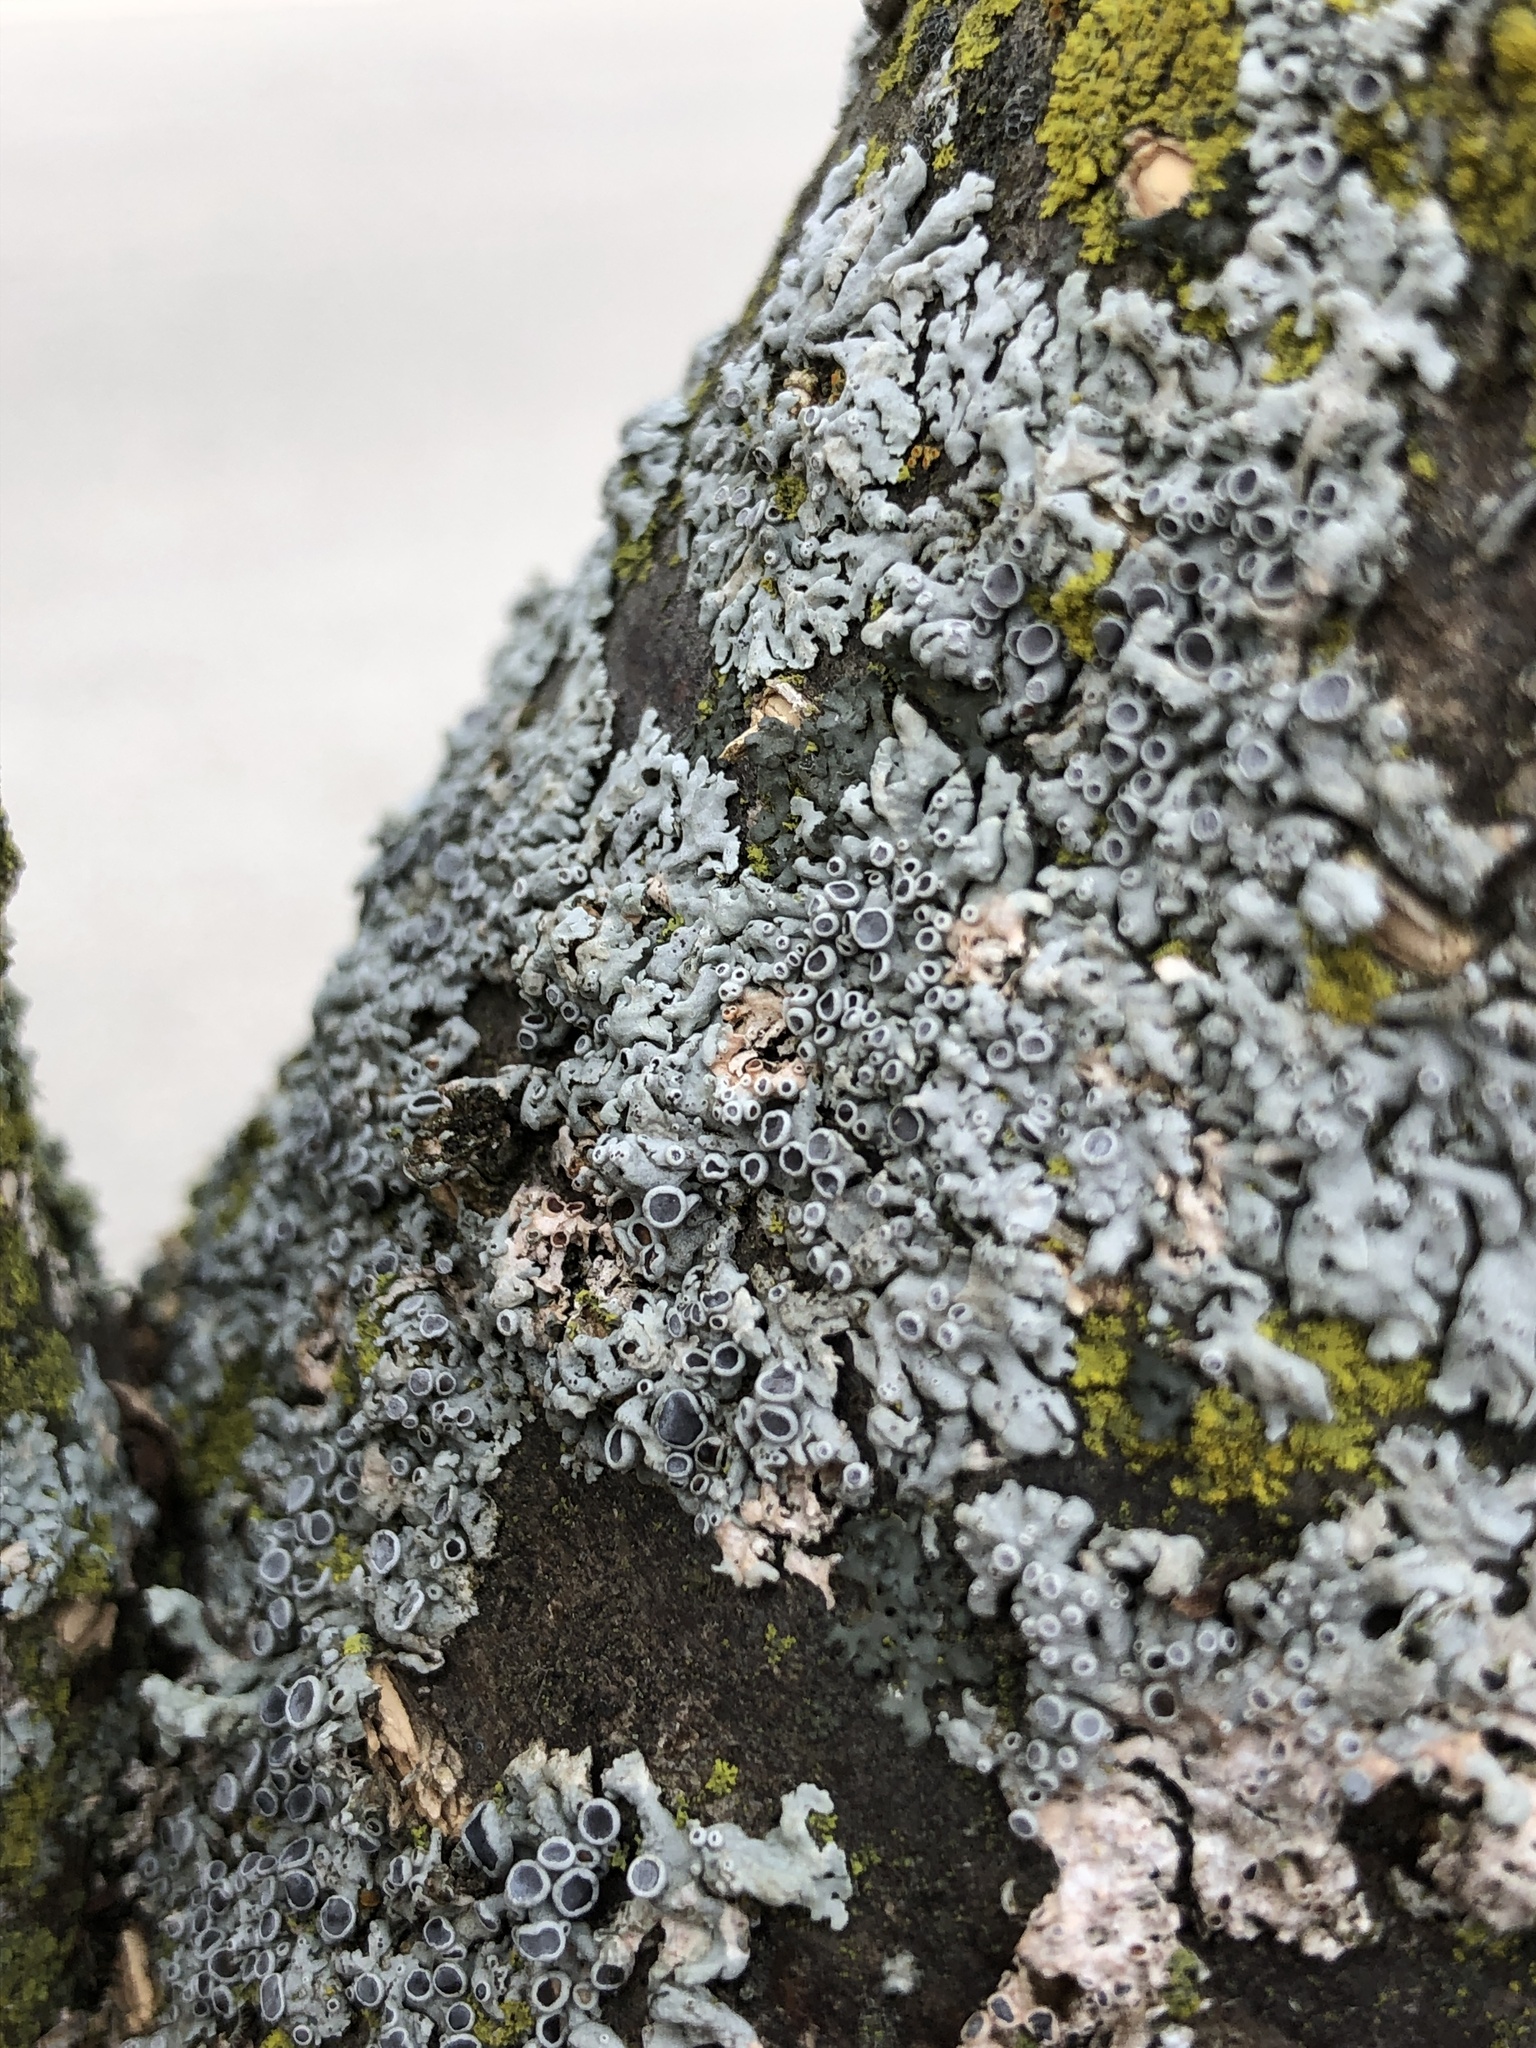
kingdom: Fungi
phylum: Ascomycota
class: Lecanoromycetes
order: Caliciales
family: Physciaceae
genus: Physcia
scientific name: Physcia stellaris
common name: Star rosette lichen
